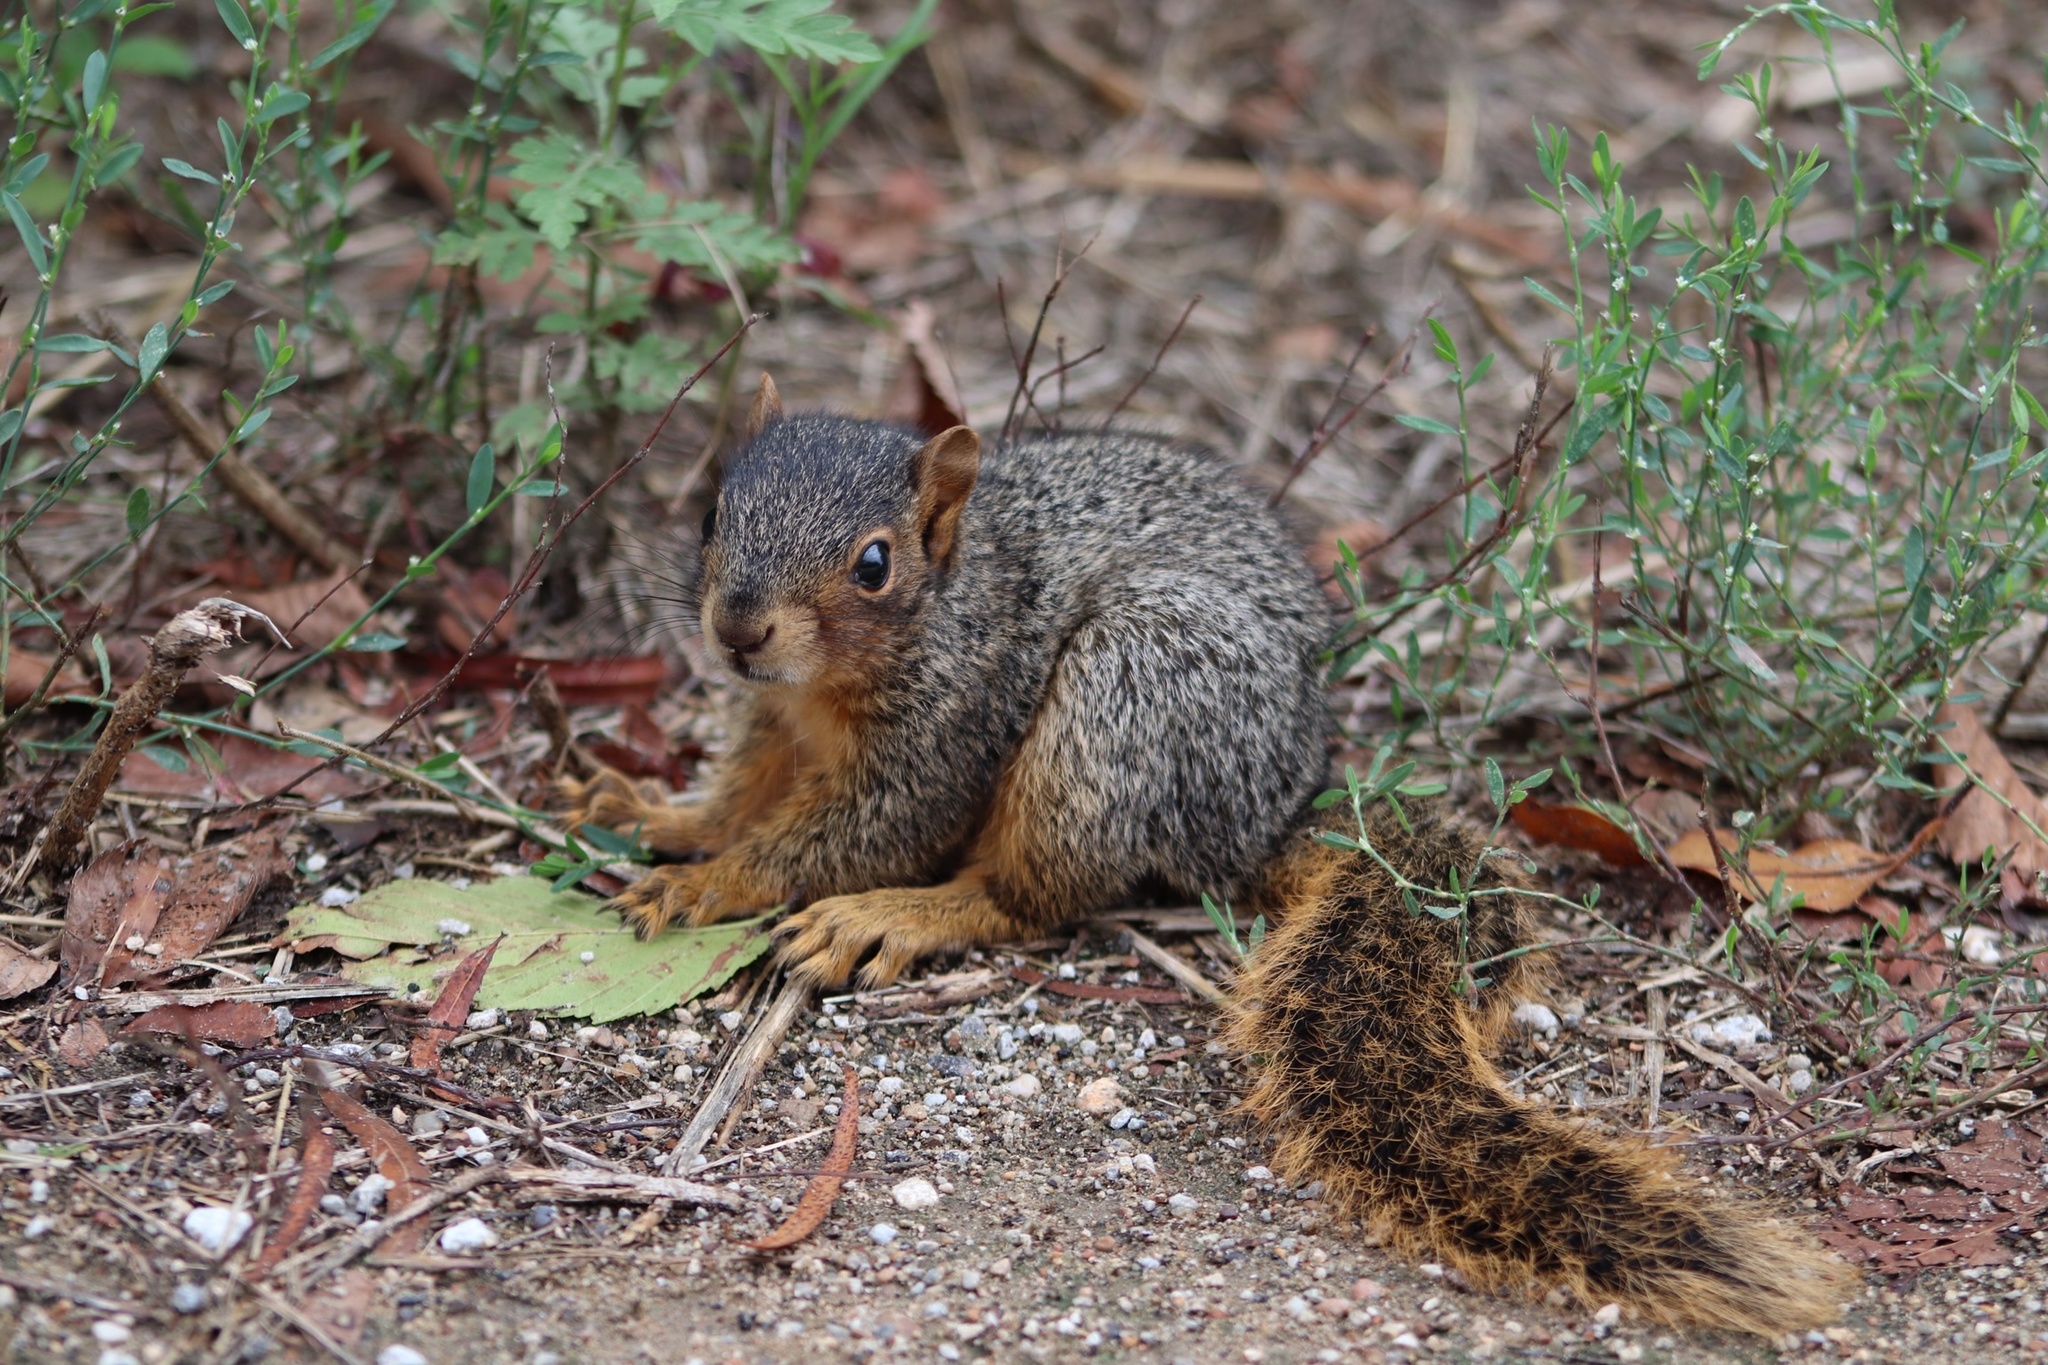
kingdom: Animalia
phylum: Chordata
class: Mammalia
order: Rodentia
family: Sciuridae
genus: Sciurus
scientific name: Sciurus niger
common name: Fox squirrel
